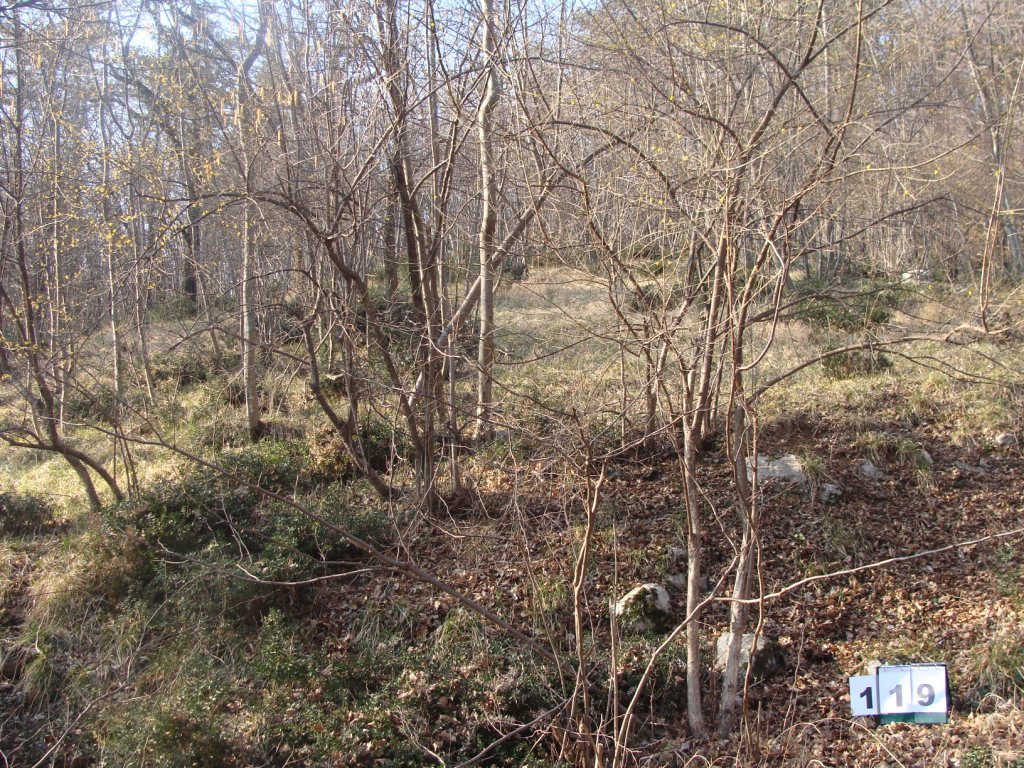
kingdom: Plantae
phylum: Tracheophyta
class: Magnoliopsida
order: Cornales
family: Cornaceae
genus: Cornus
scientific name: Cornus mas
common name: Cornelian-cherry
